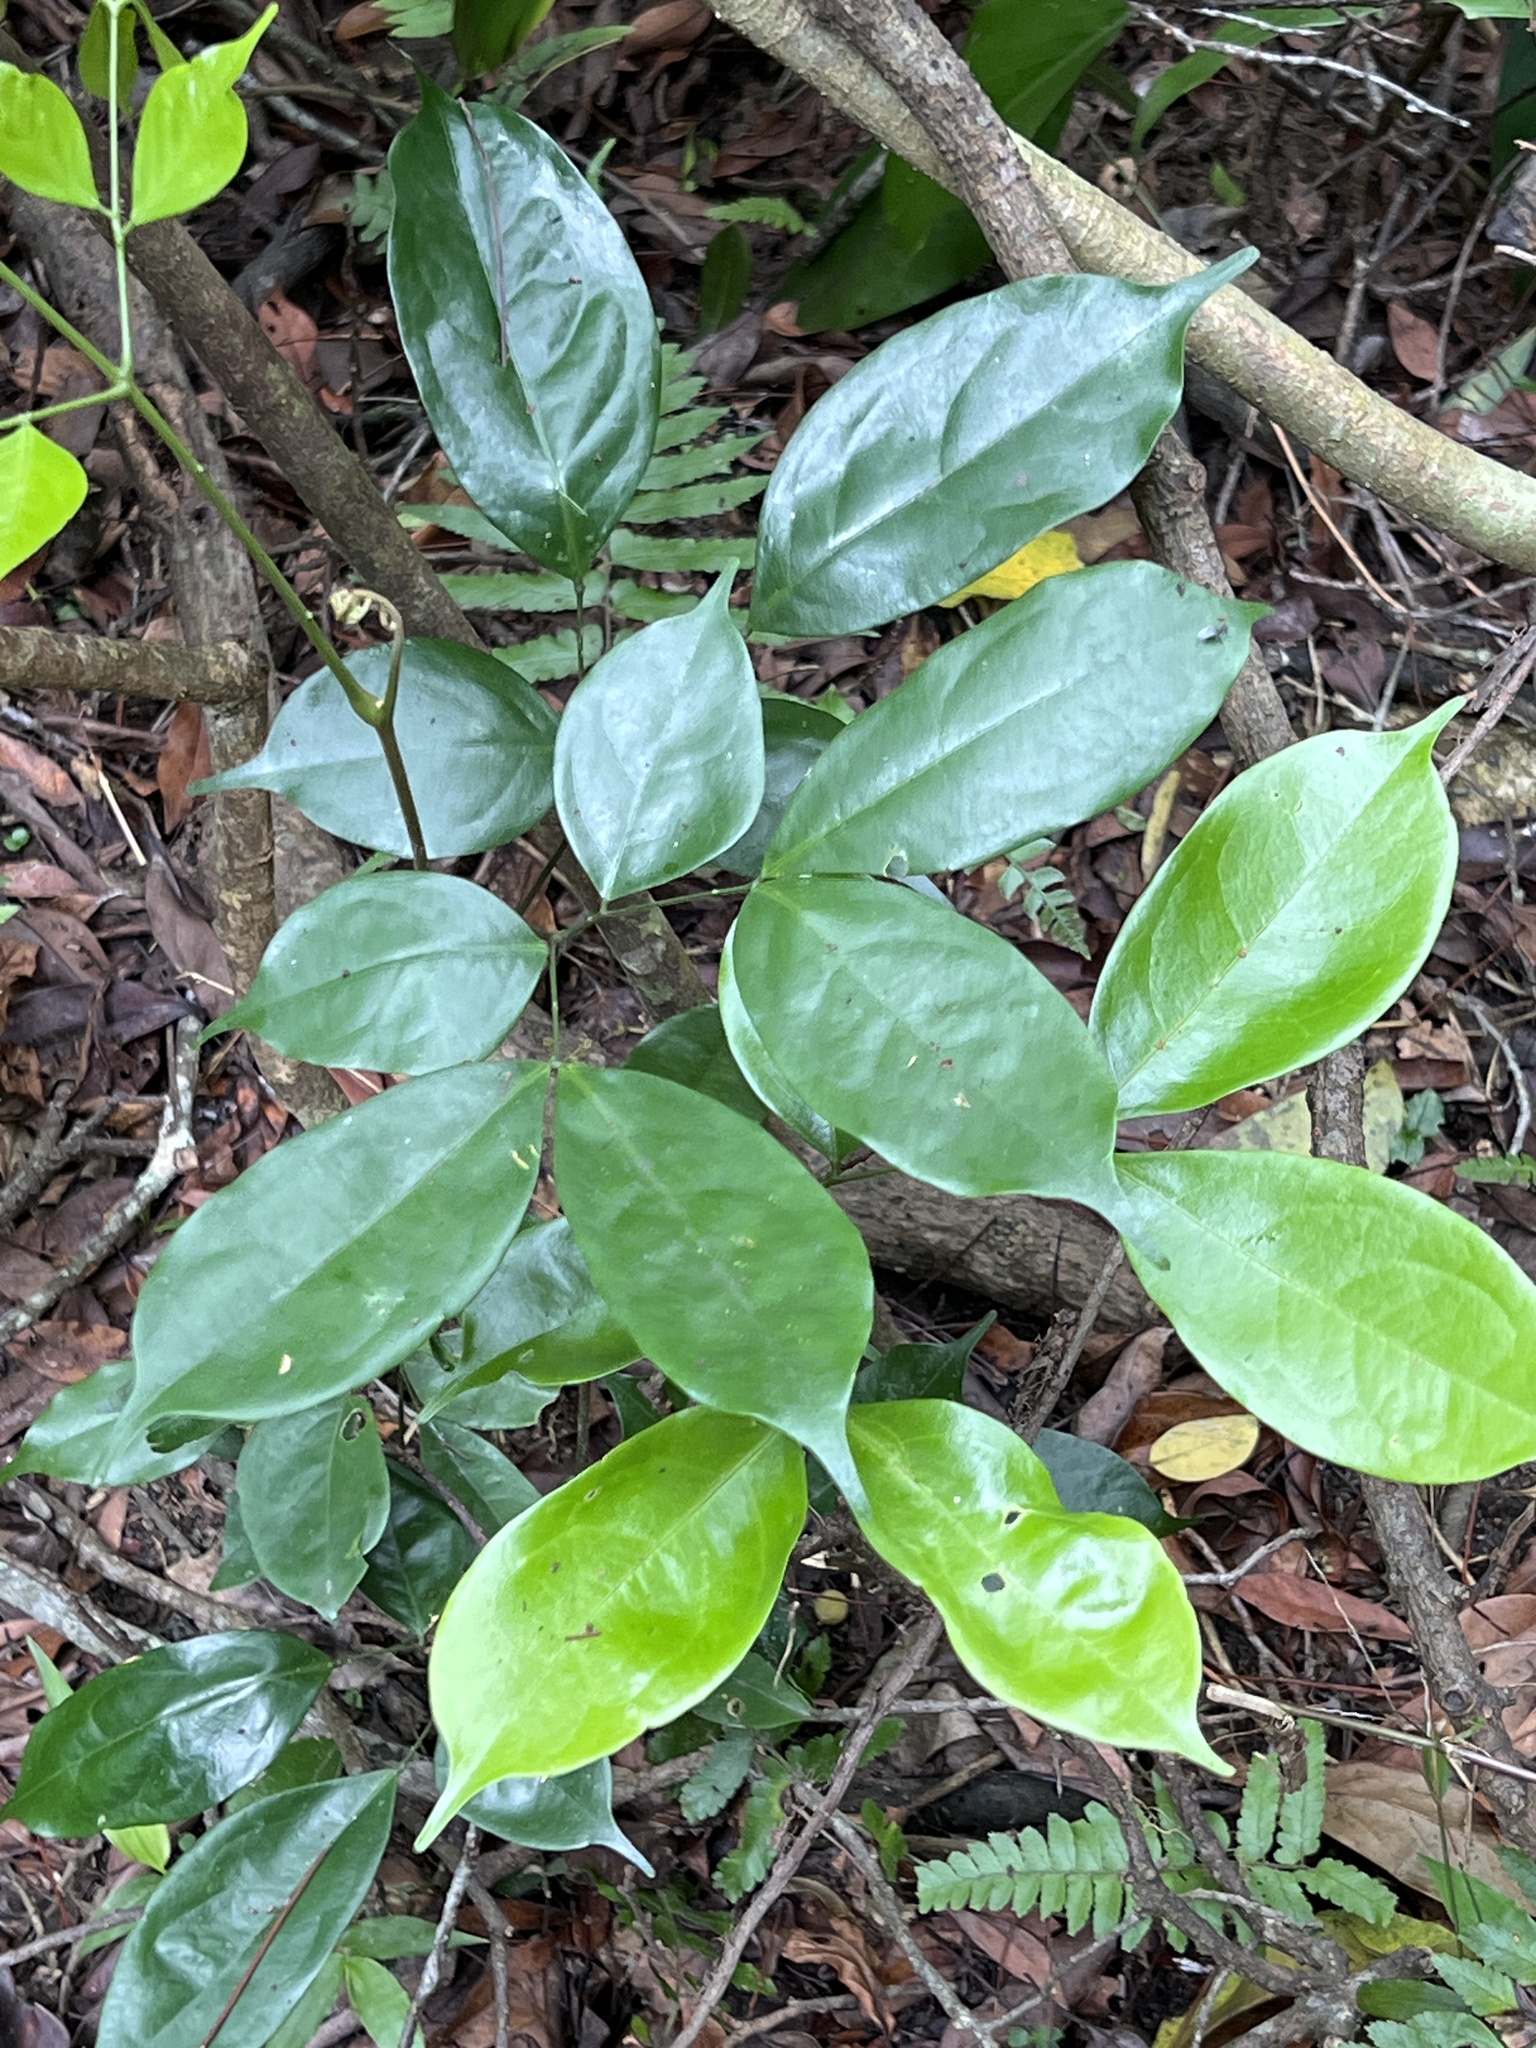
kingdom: Plantae
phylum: Tracheophyta
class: Magnoliopsida
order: Oxalidales
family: Elaeocarpaceae
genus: Elaeocarpus
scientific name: Elaeocarpus japonicus
